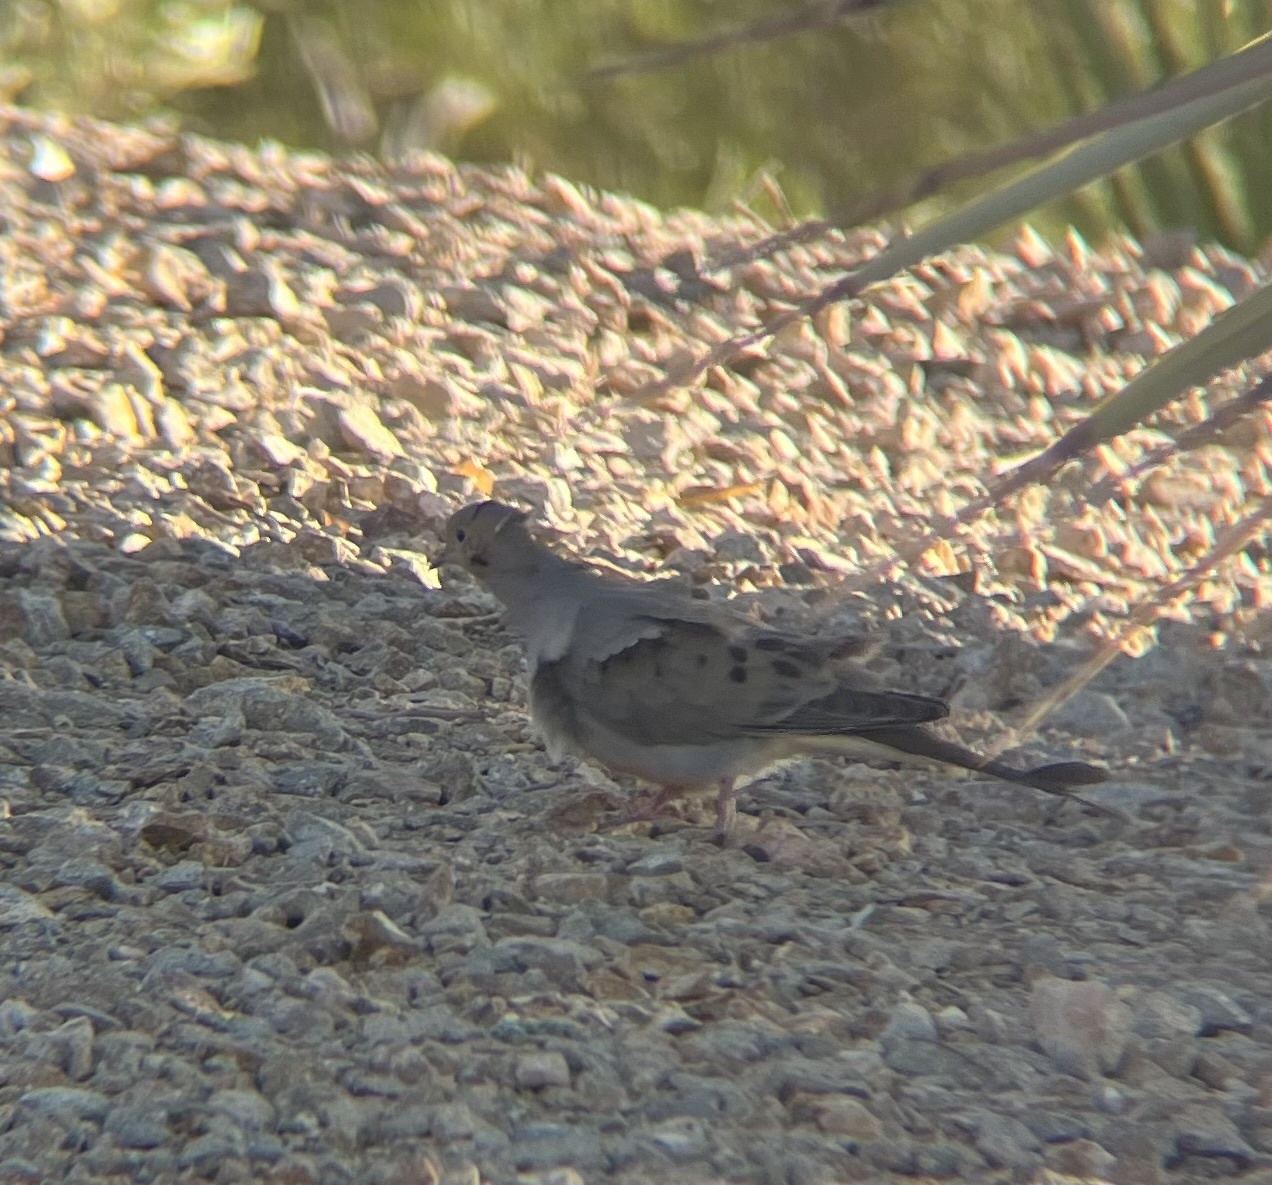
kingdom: Animalia
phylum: Chordata
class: Aves
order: Columbiformes
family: Columbidae
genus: Zenaida
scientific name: Zenaida macroura
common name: Mourning dove
